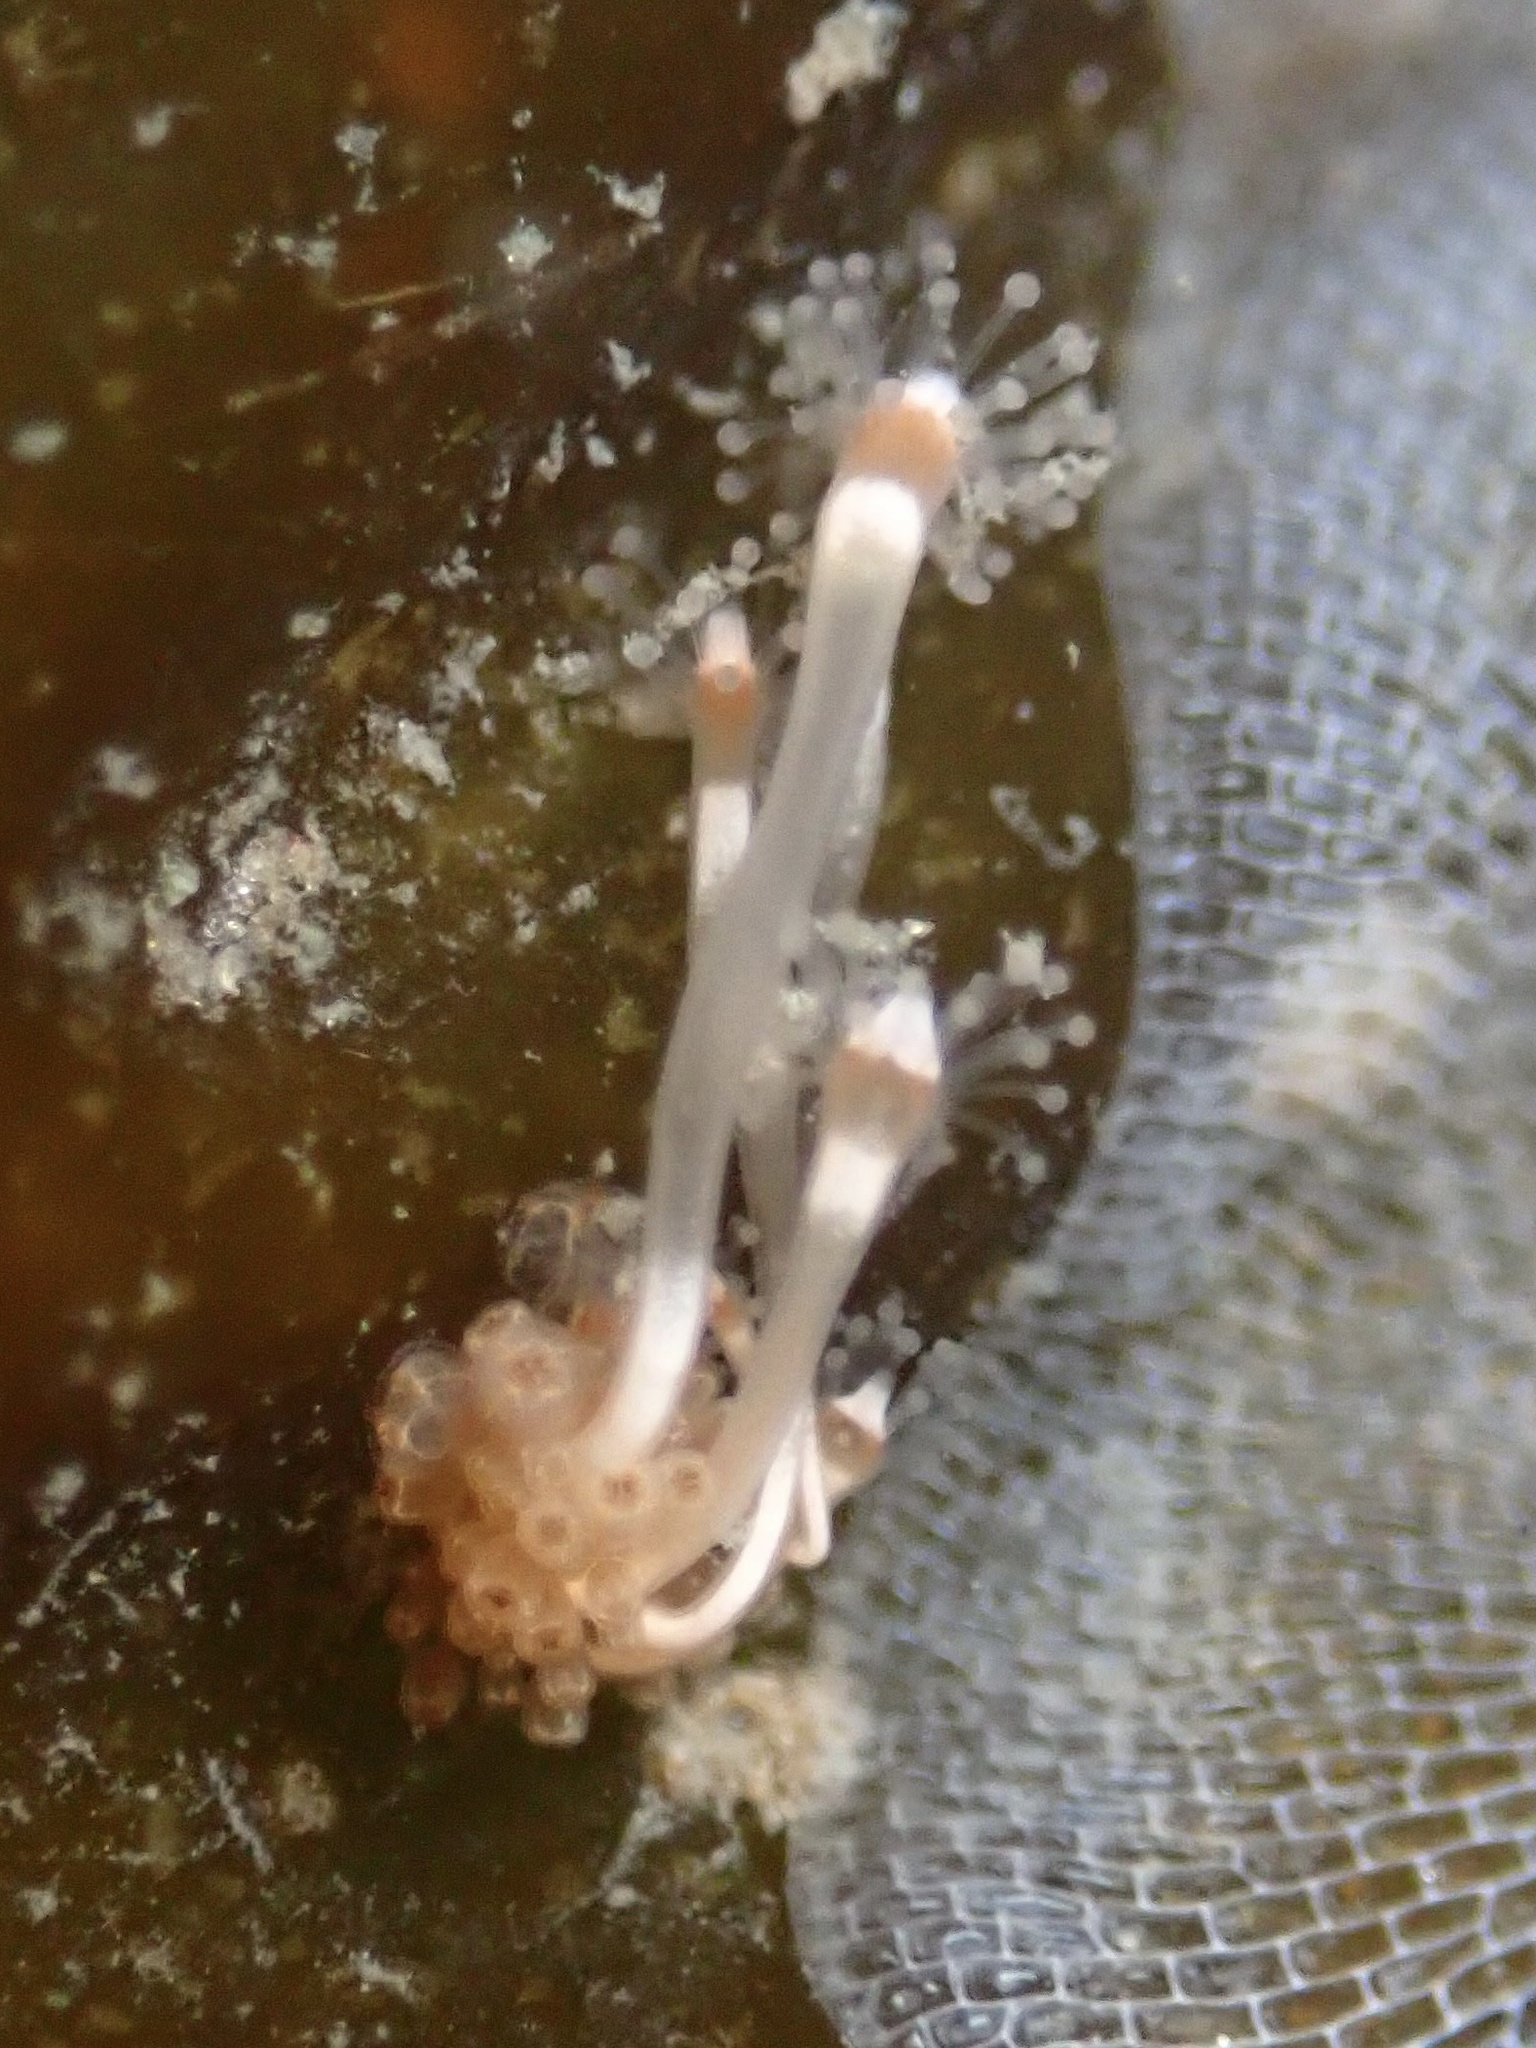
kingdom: Animalia
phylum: Cnidaria
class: Hydrozoa
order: Anthoathecata
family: Hydrocorynidae
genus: Hydrocoryne
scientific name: Hydrocoryne bodegensis
